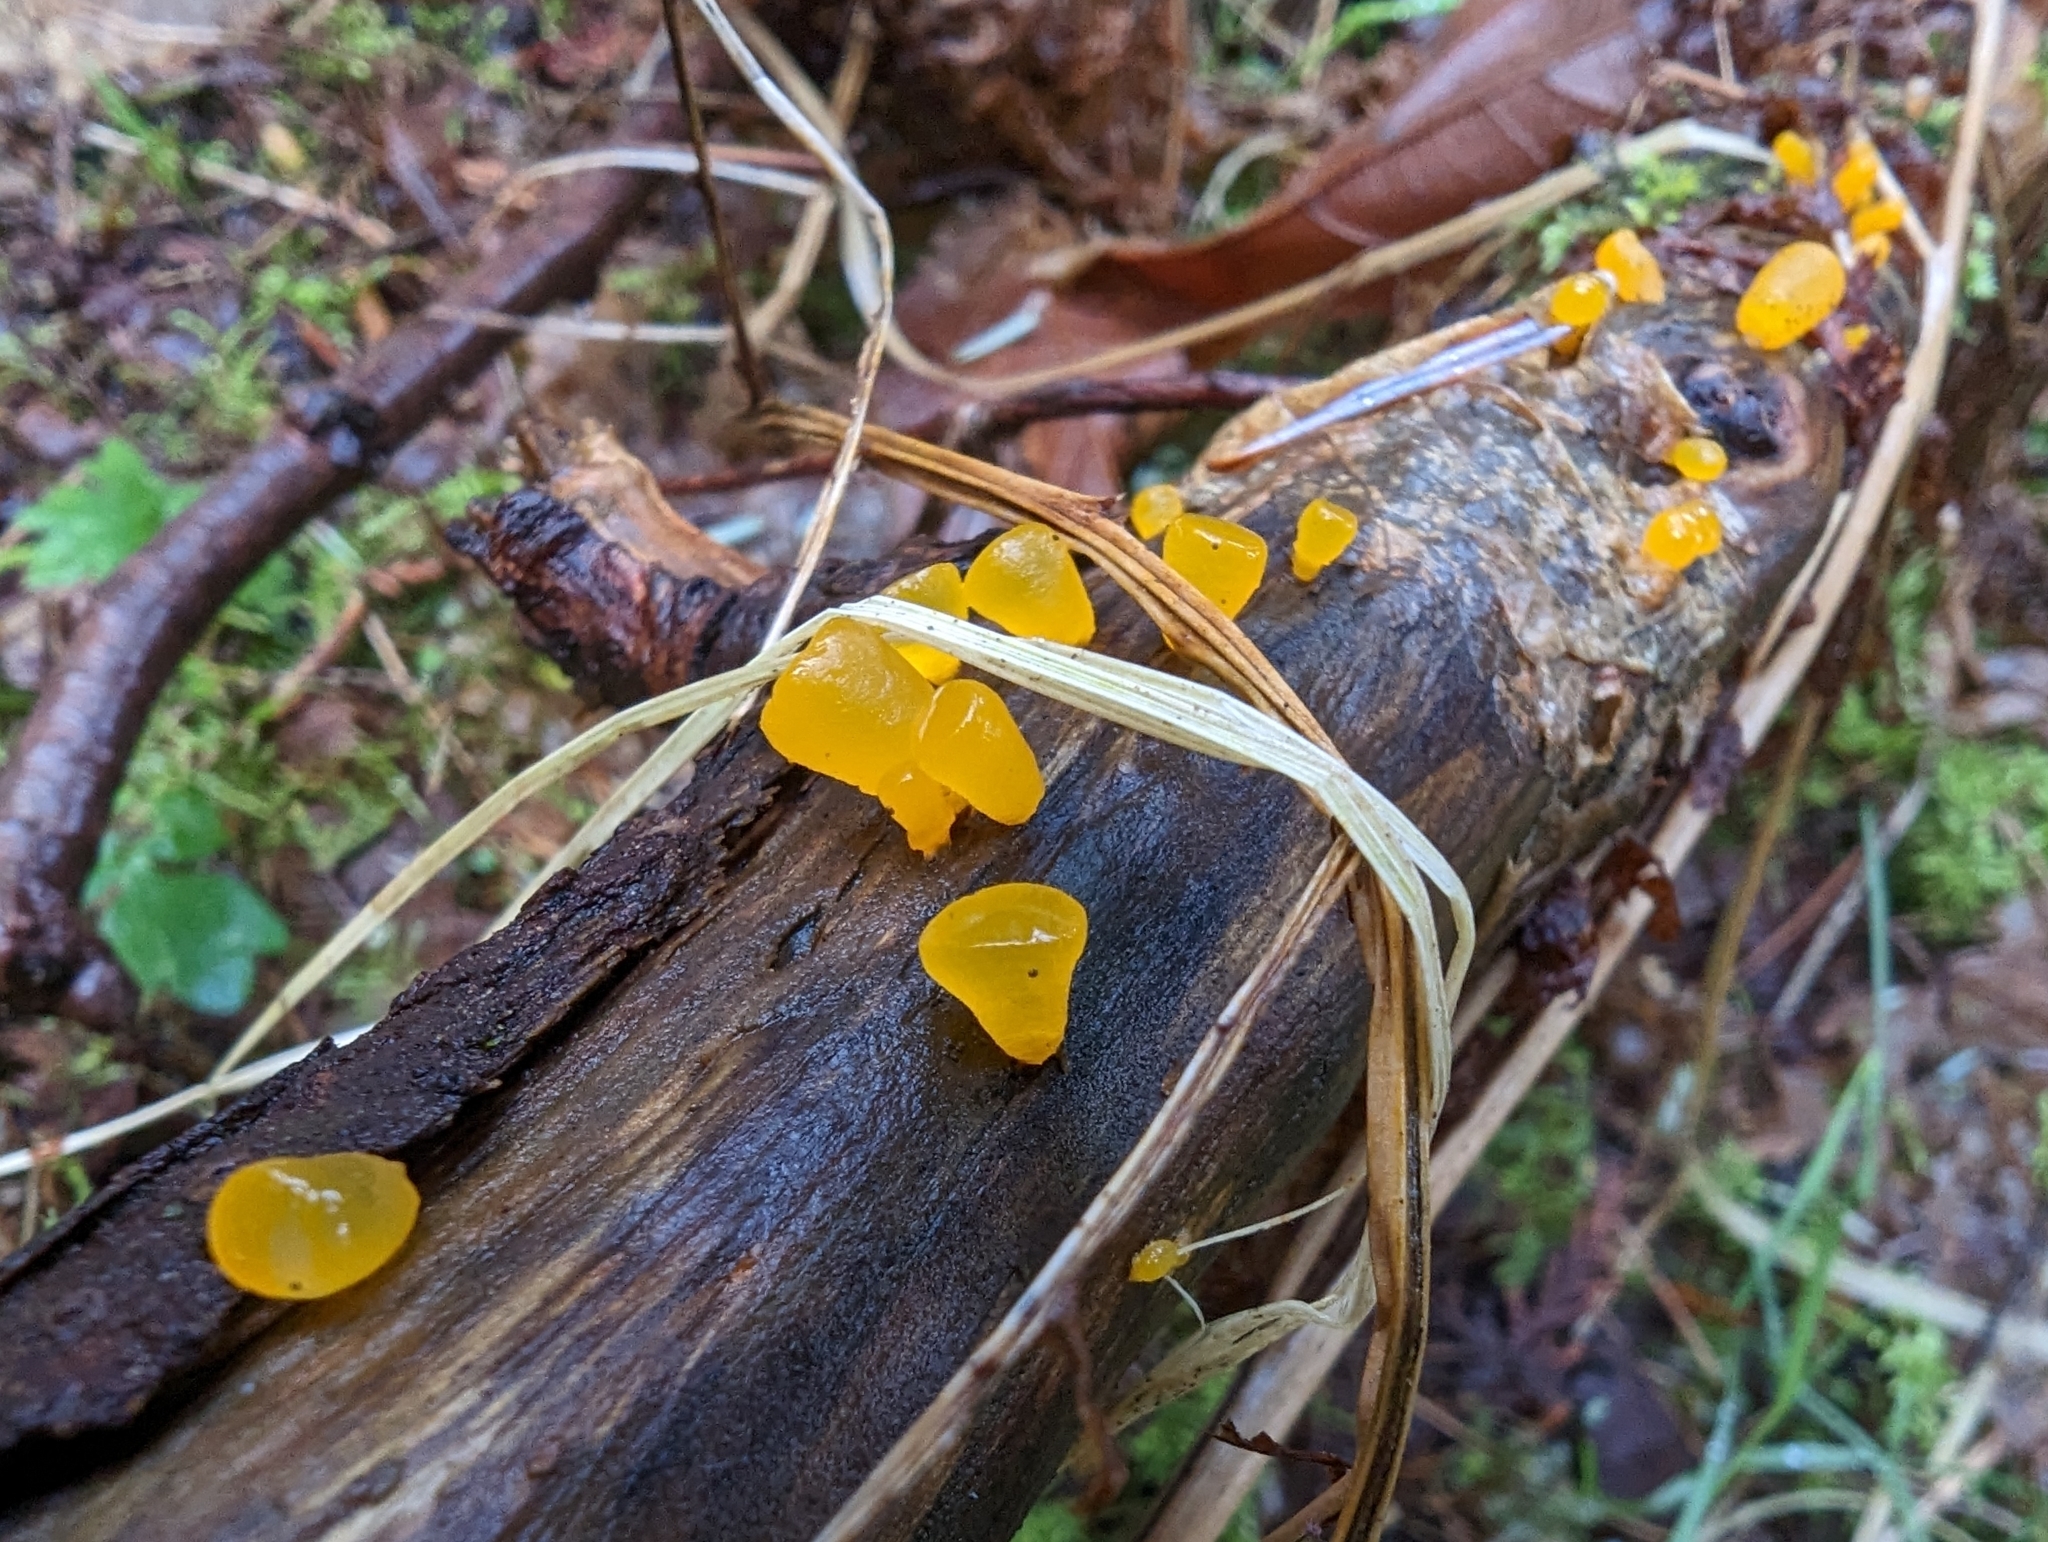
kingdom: Fungi
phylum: Basidiomycota
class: Dacrymycetes
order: Dacrymycetales
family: Dacrymycetaceae
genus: Guepiniopsis
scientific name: Guepiniopsis alpina
